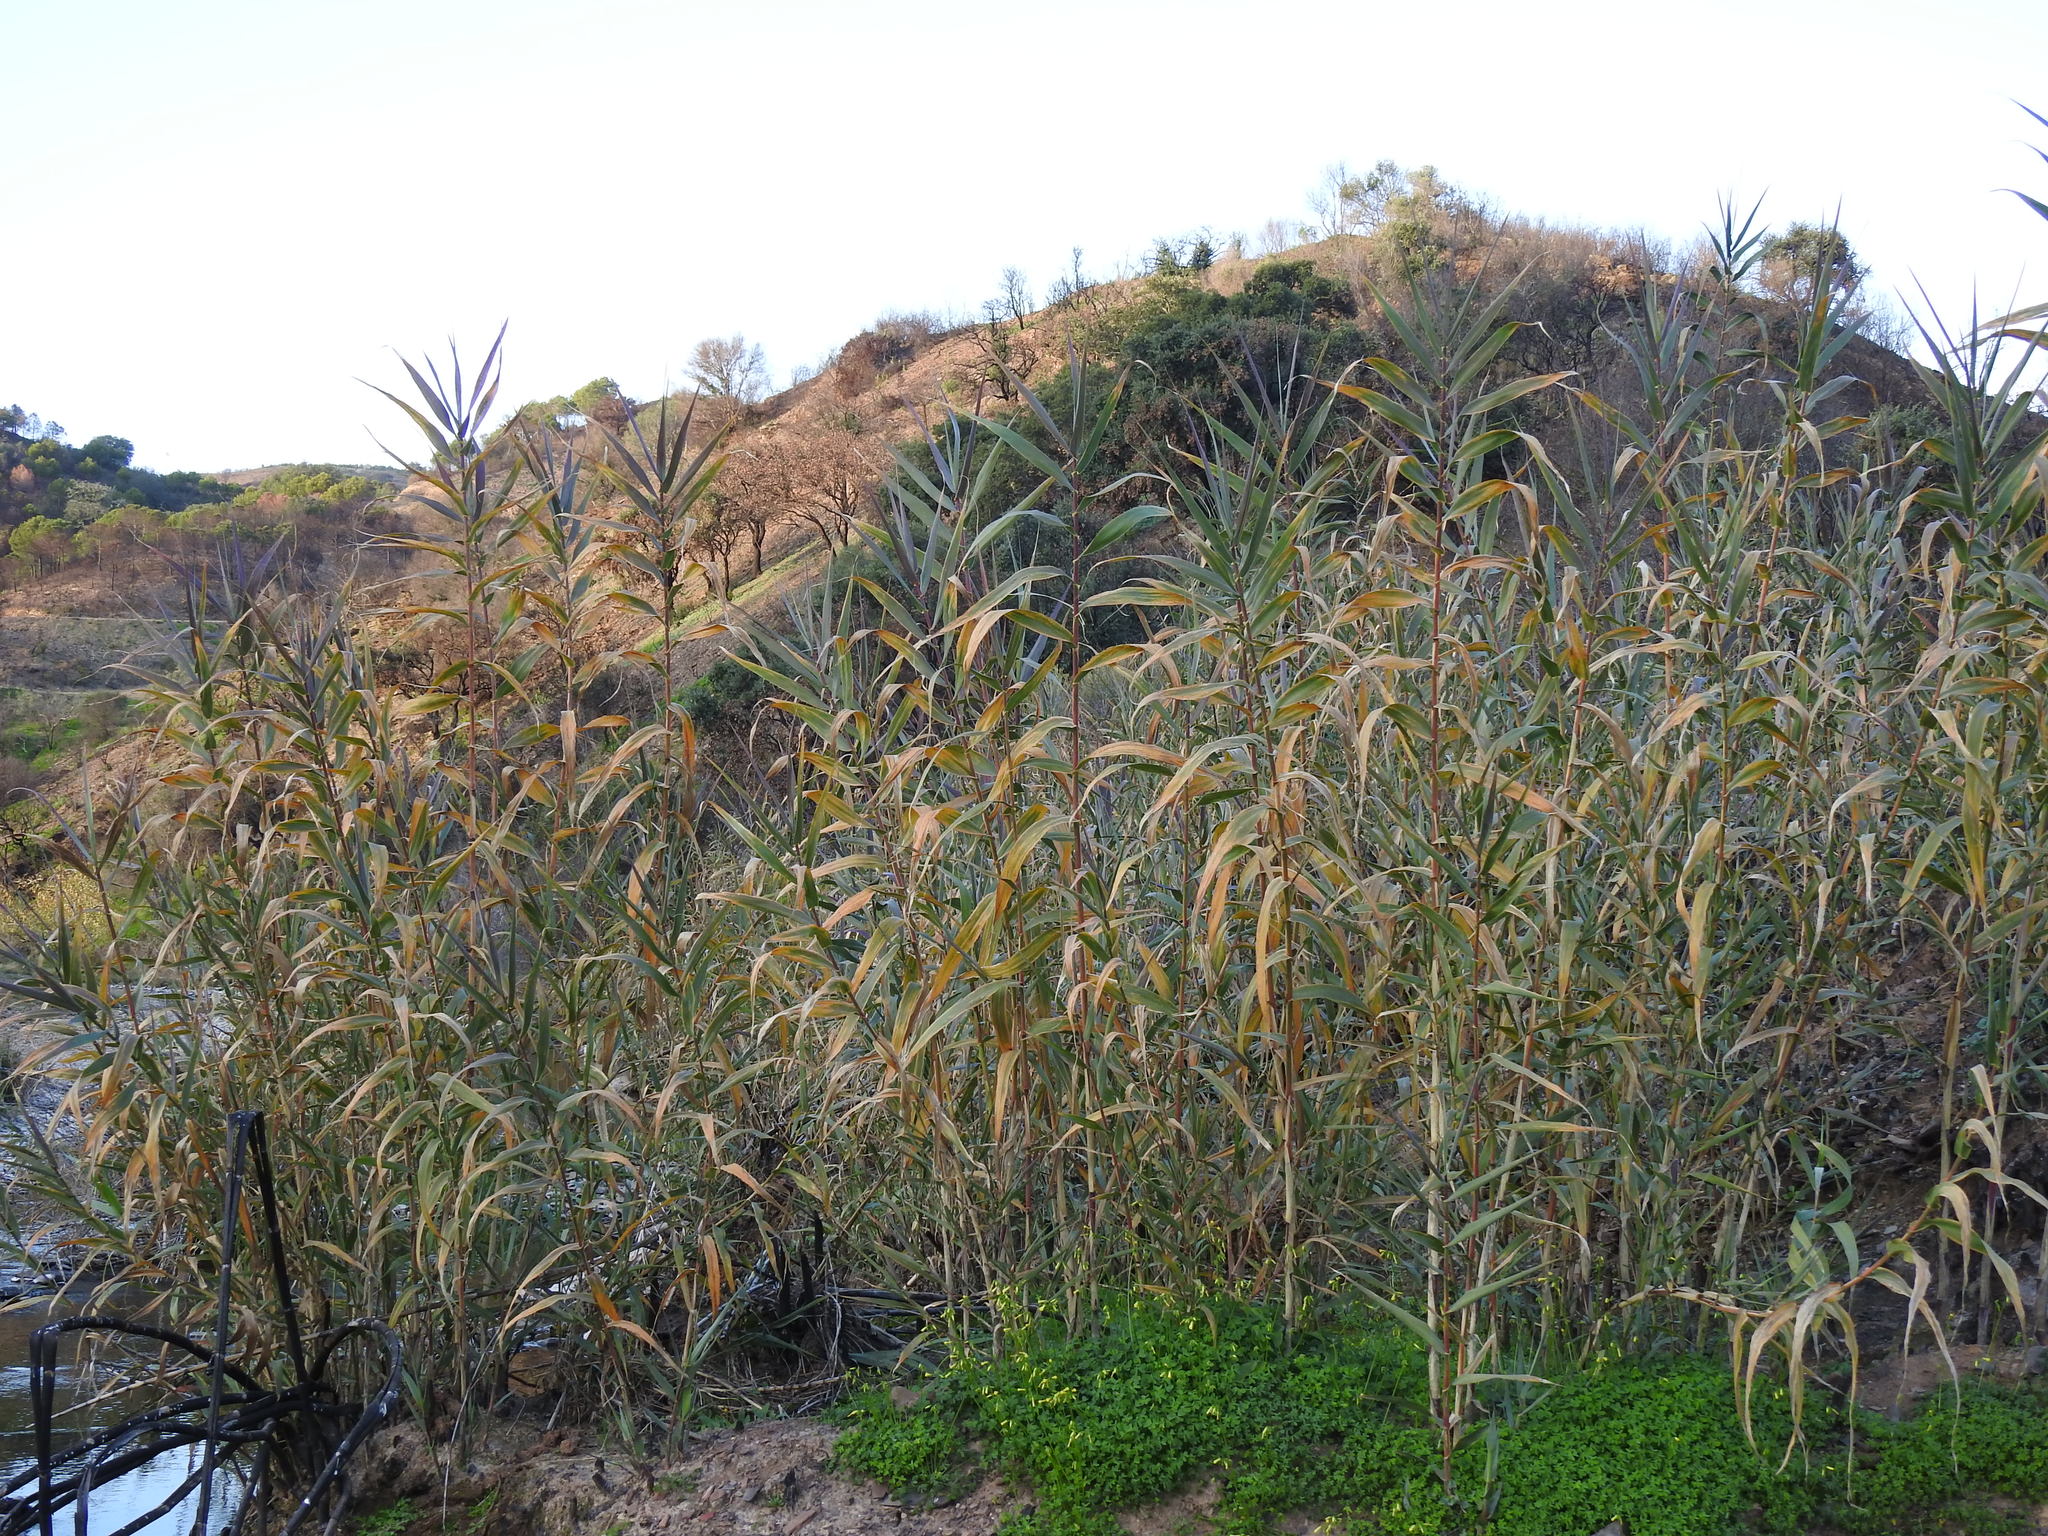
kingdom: Plantae
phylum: Tracheophyta
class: Liliopsida
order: Poales
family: Poaceae
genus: Arundo
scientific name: Arundo donax
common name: Giant reed
